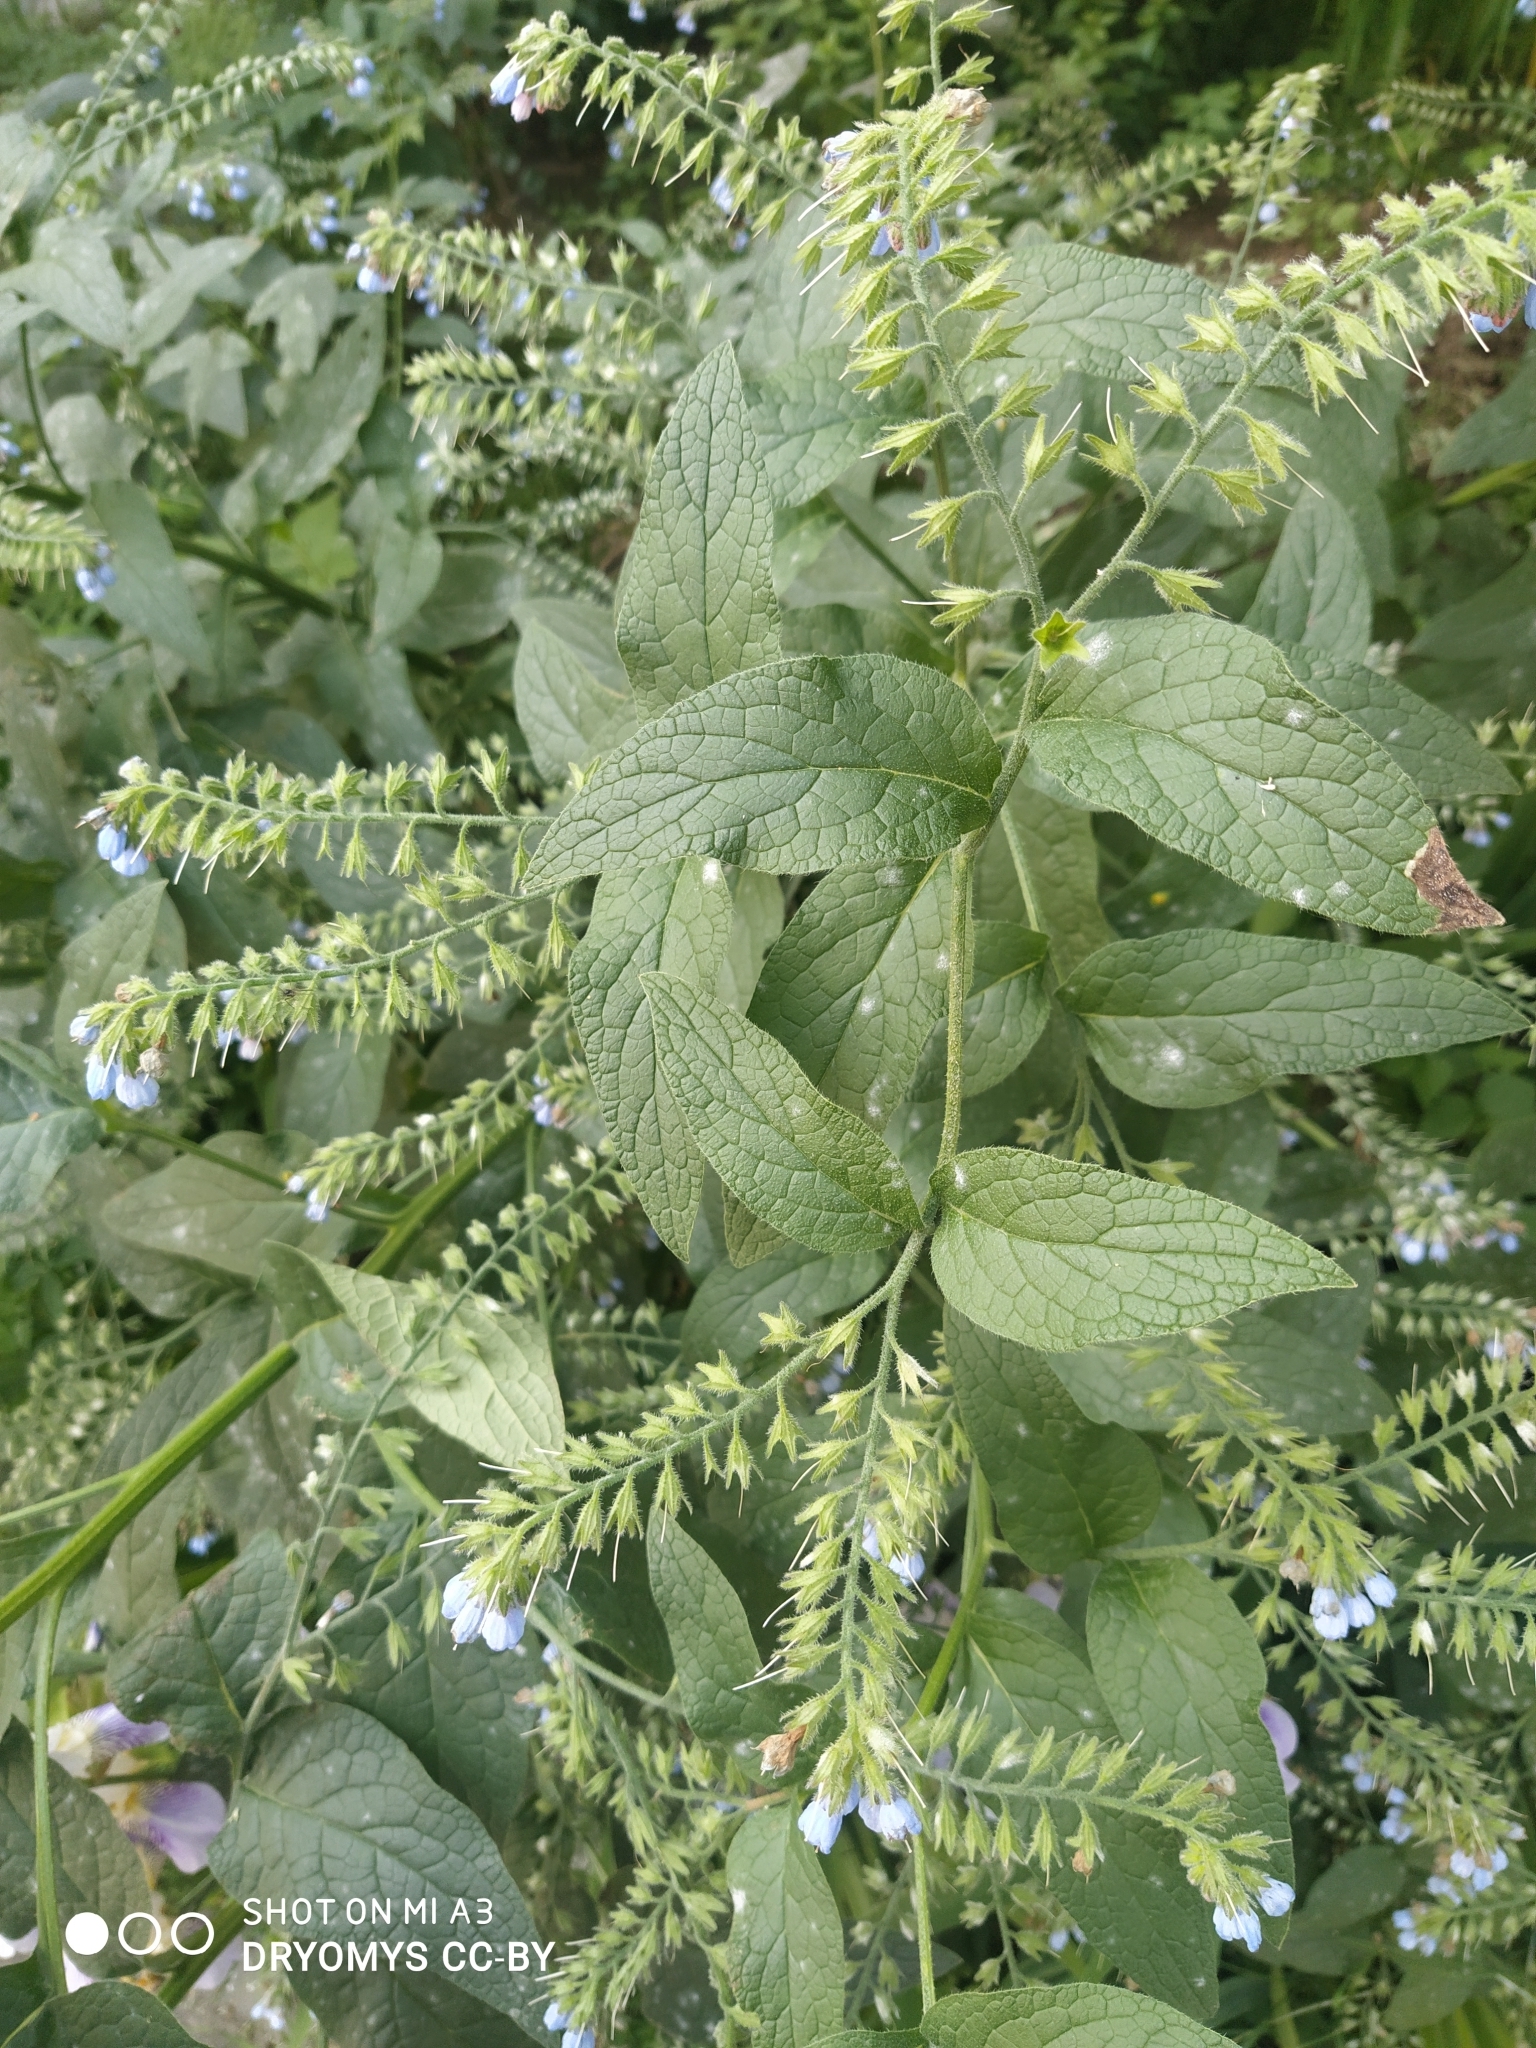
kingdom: Plantae
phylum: Tracheophyta
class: Magnoliopsida
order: Boraginales
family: Boraginaceae
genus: Symphytum
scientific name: Symphytum caucasicum
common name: Caucasian comfrey
